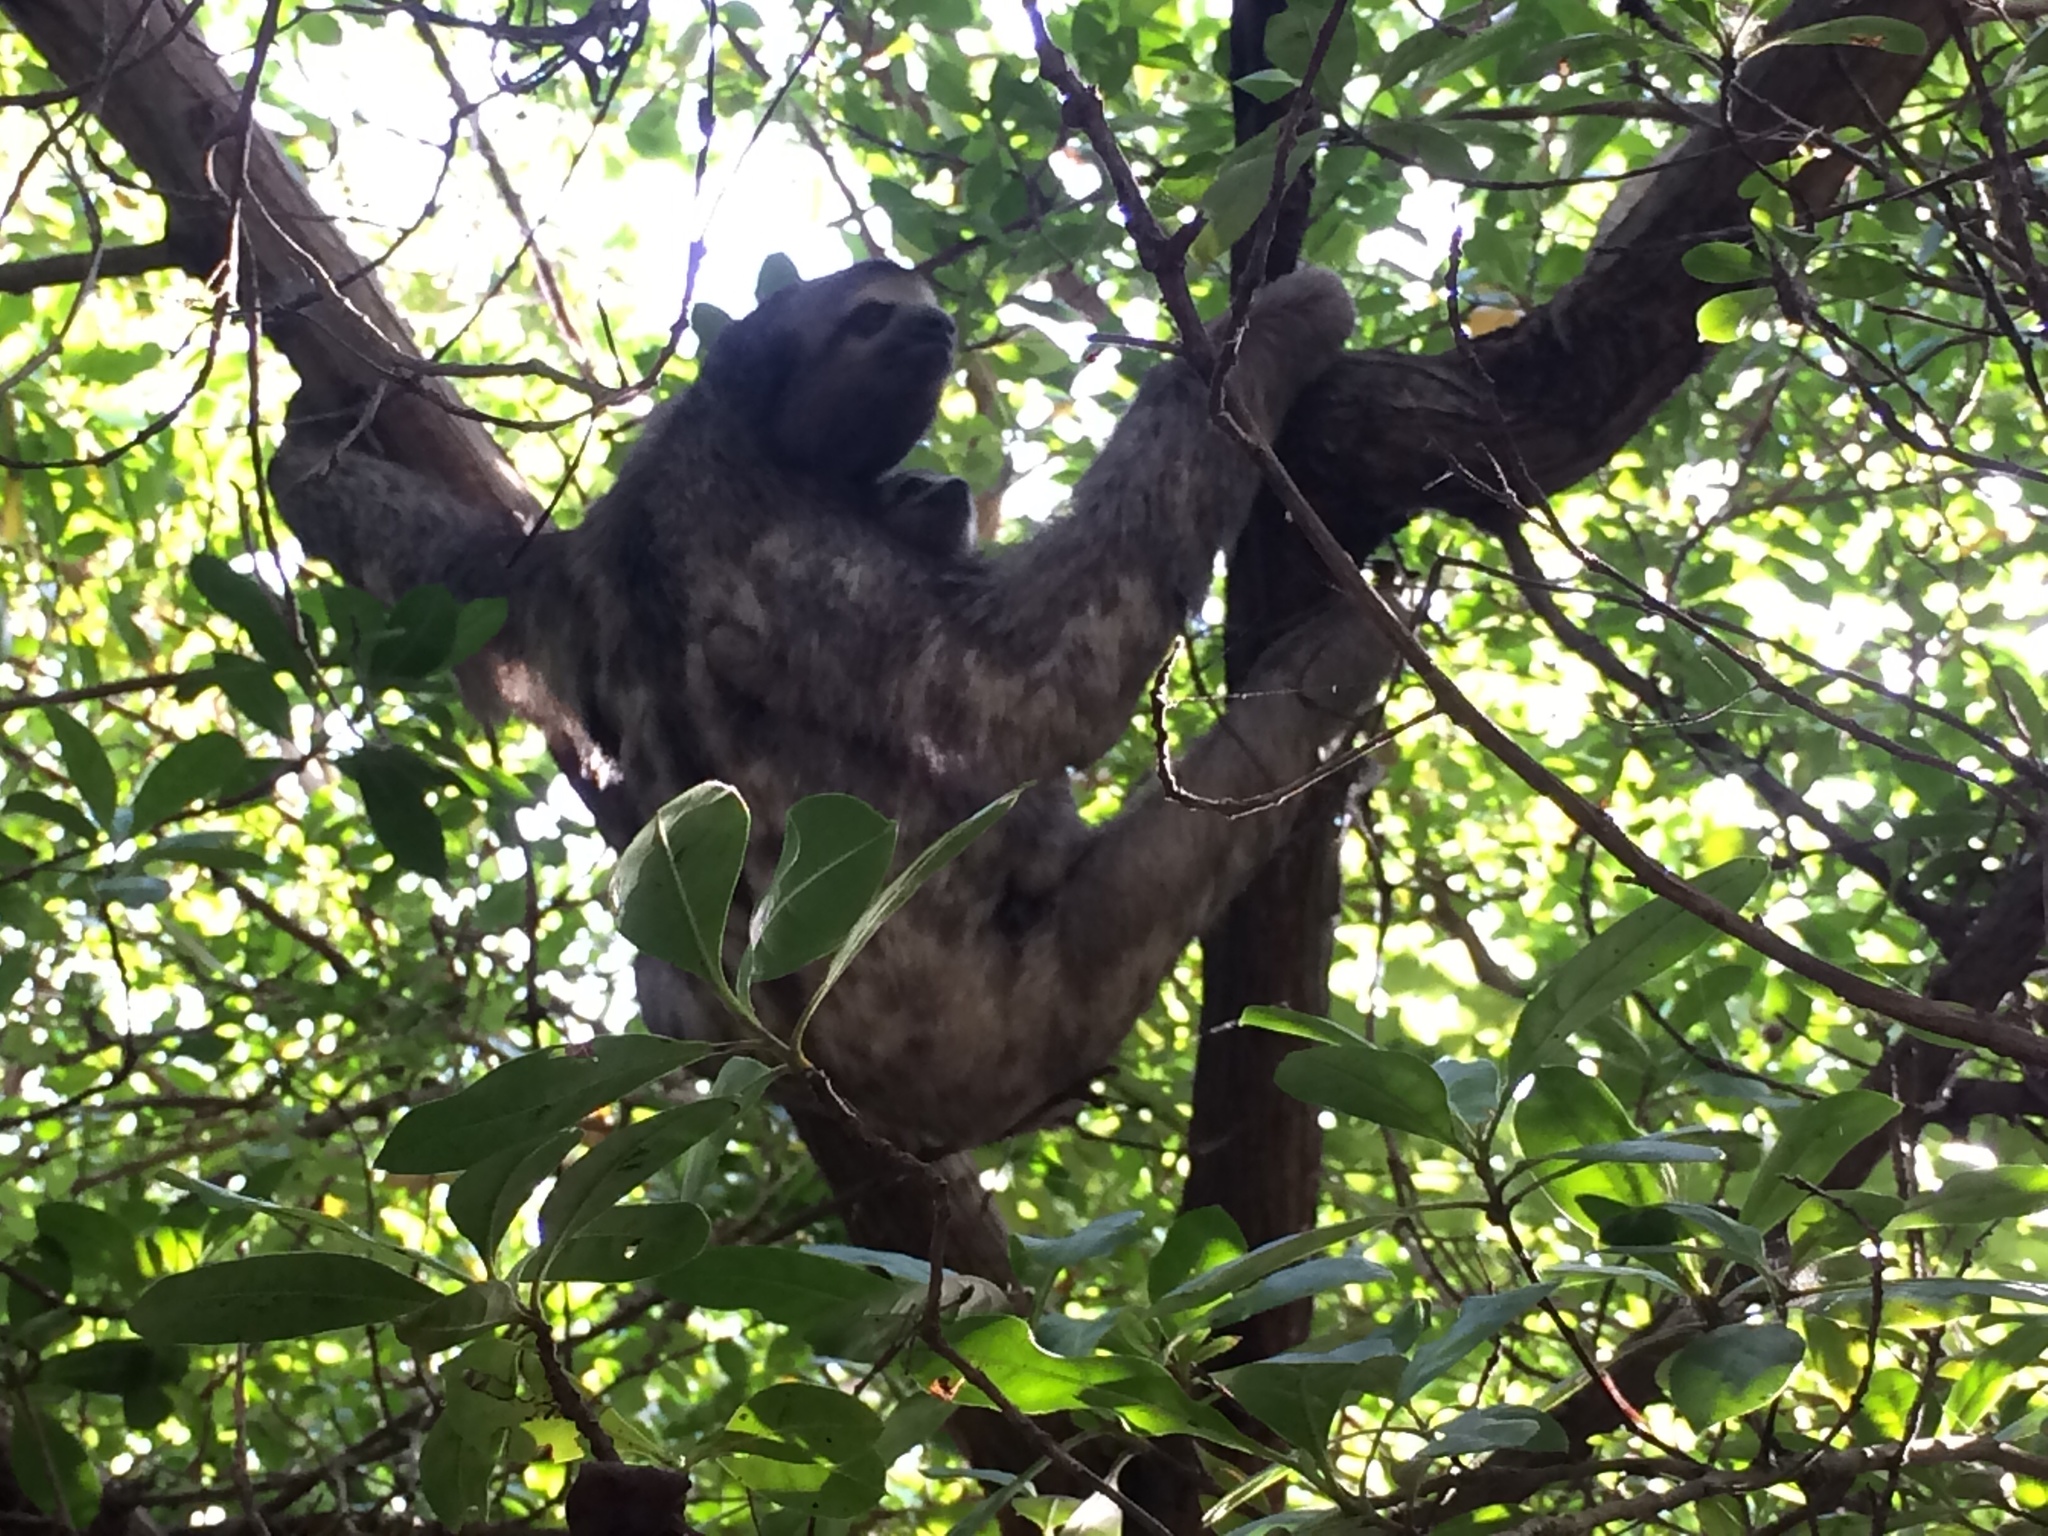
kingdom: Animalia
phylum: Chordata
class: Mammalia
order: Pilosa
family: Bradypodidae
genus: Bradypus
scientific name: Bradypus variegatus
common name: Brown-throated three-toed sloth
